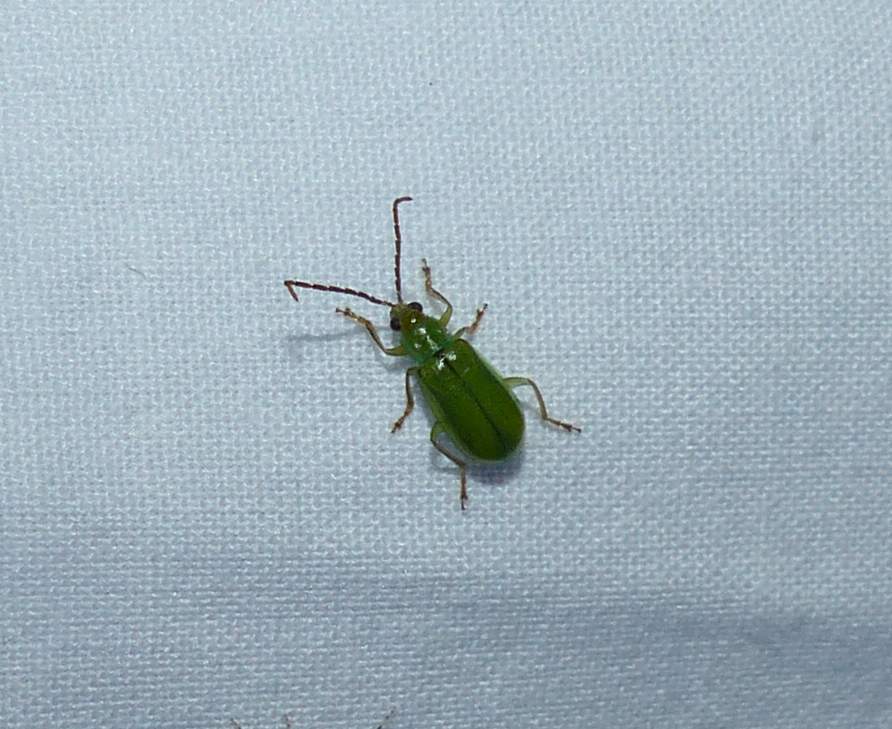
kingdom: Animalia
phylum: Arthropoda
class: Insecta
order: Coleoptera
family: Chrysomelidae
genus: Diabrotica
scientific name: Diabrotica barberi
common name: Northern corn rootworm
